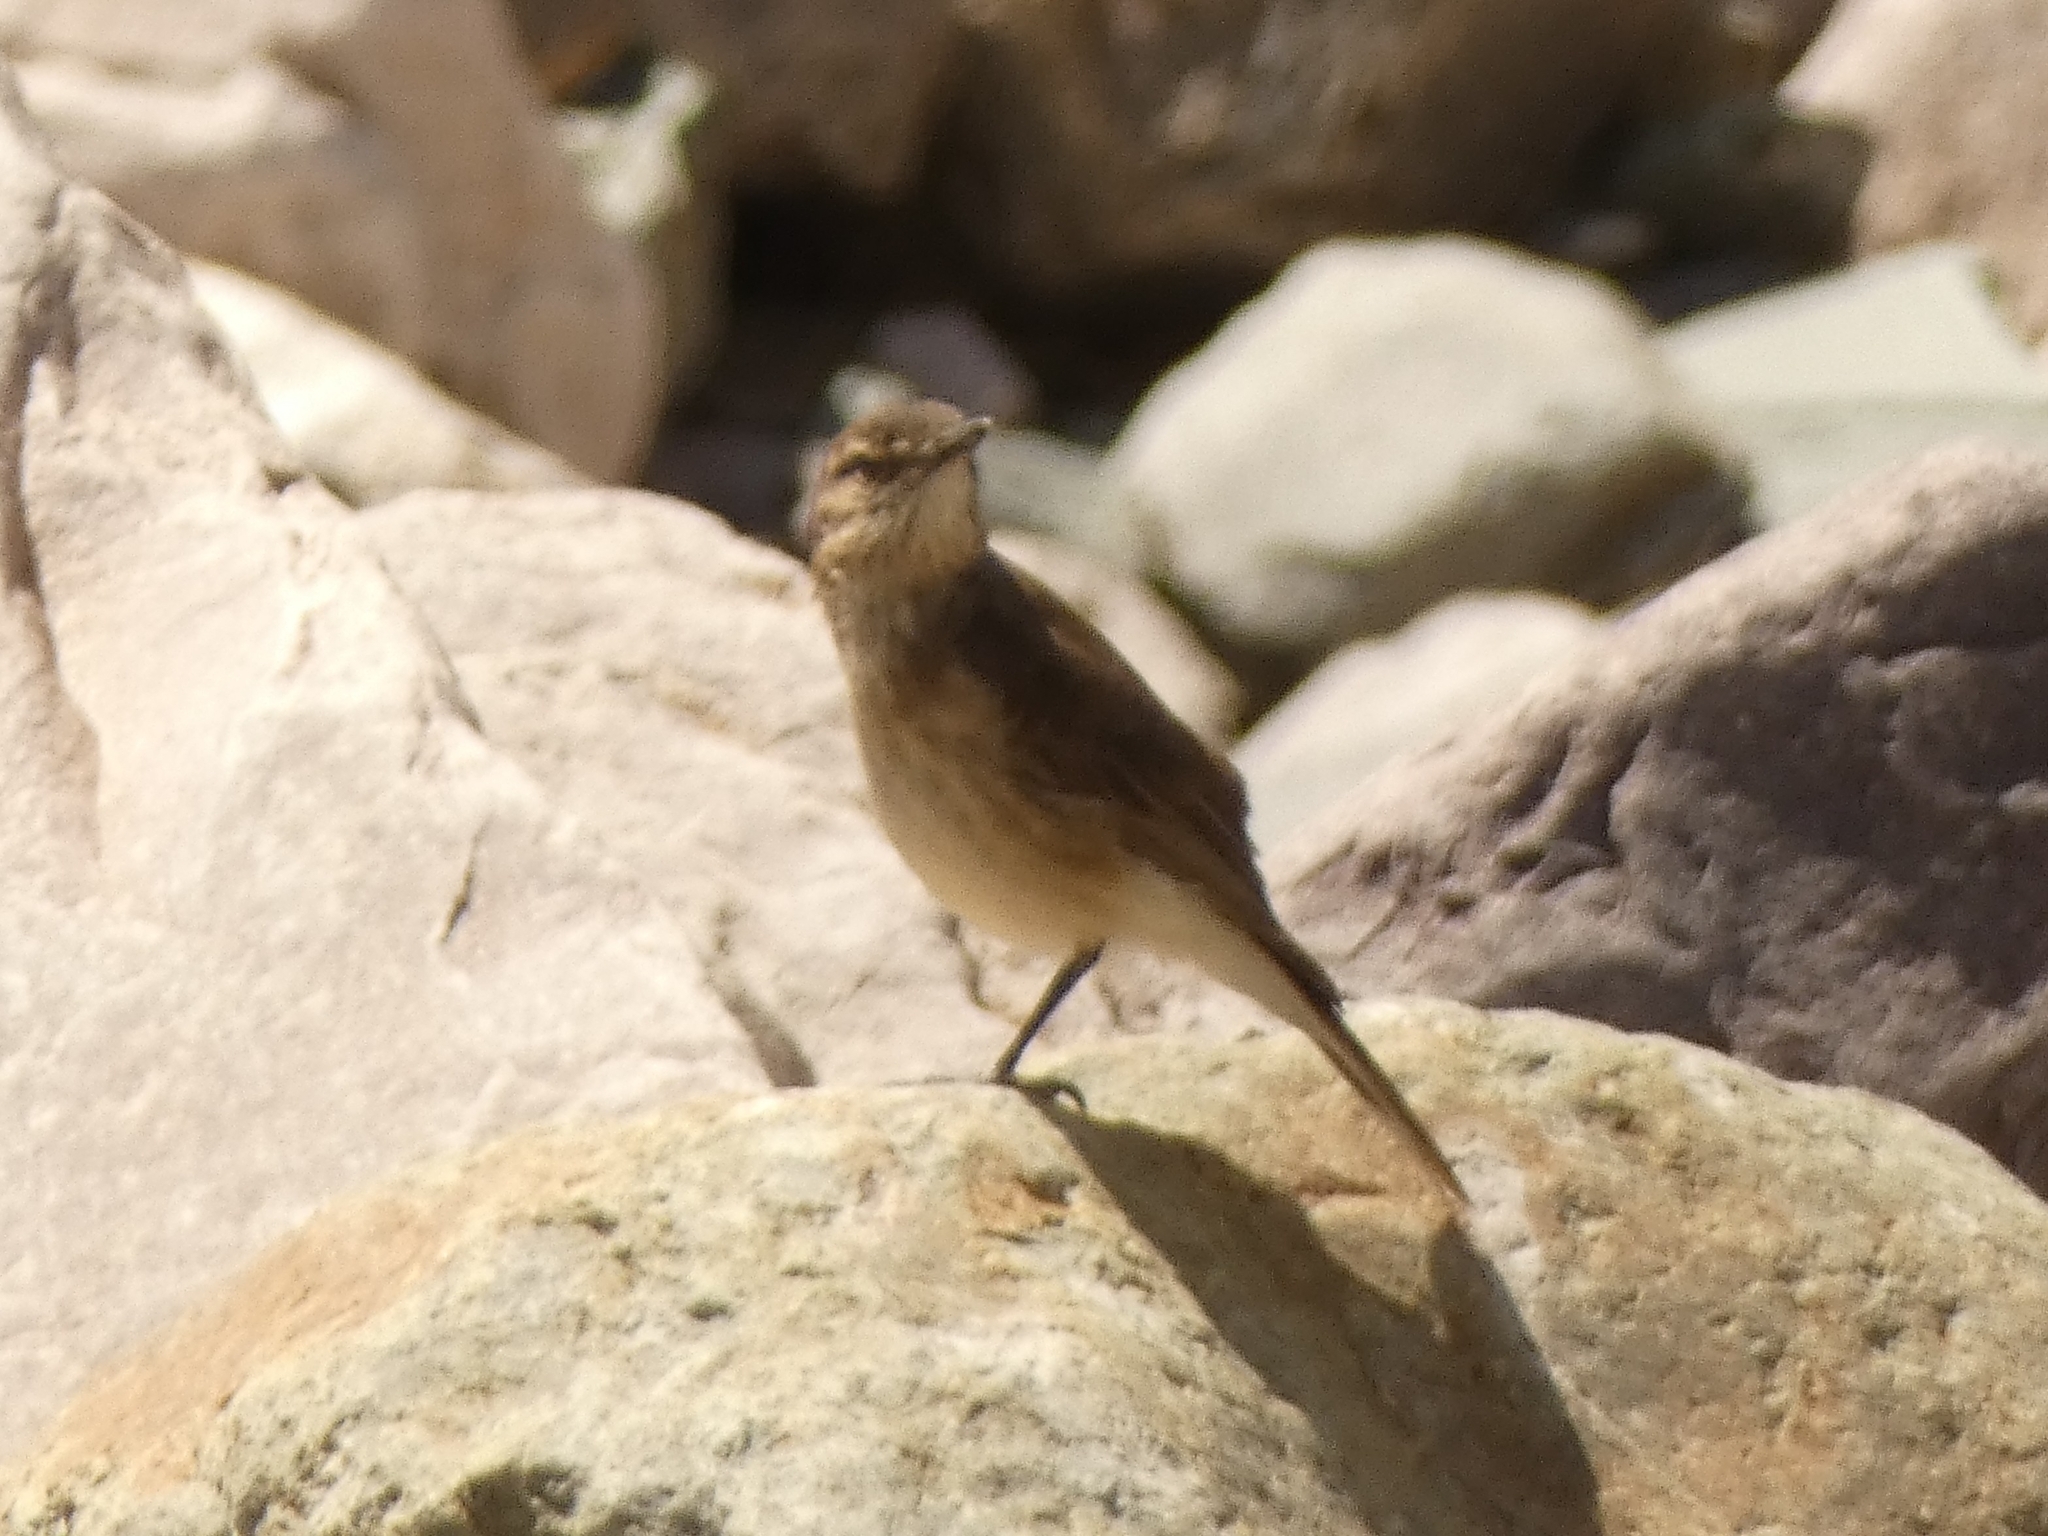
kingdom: Animalia
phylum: Chordata
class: Aves
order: Passeriformes
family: Tyrannidae
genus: Agriornis
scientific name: Agriornis montanus
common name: Black-billed shrike-tyrant
